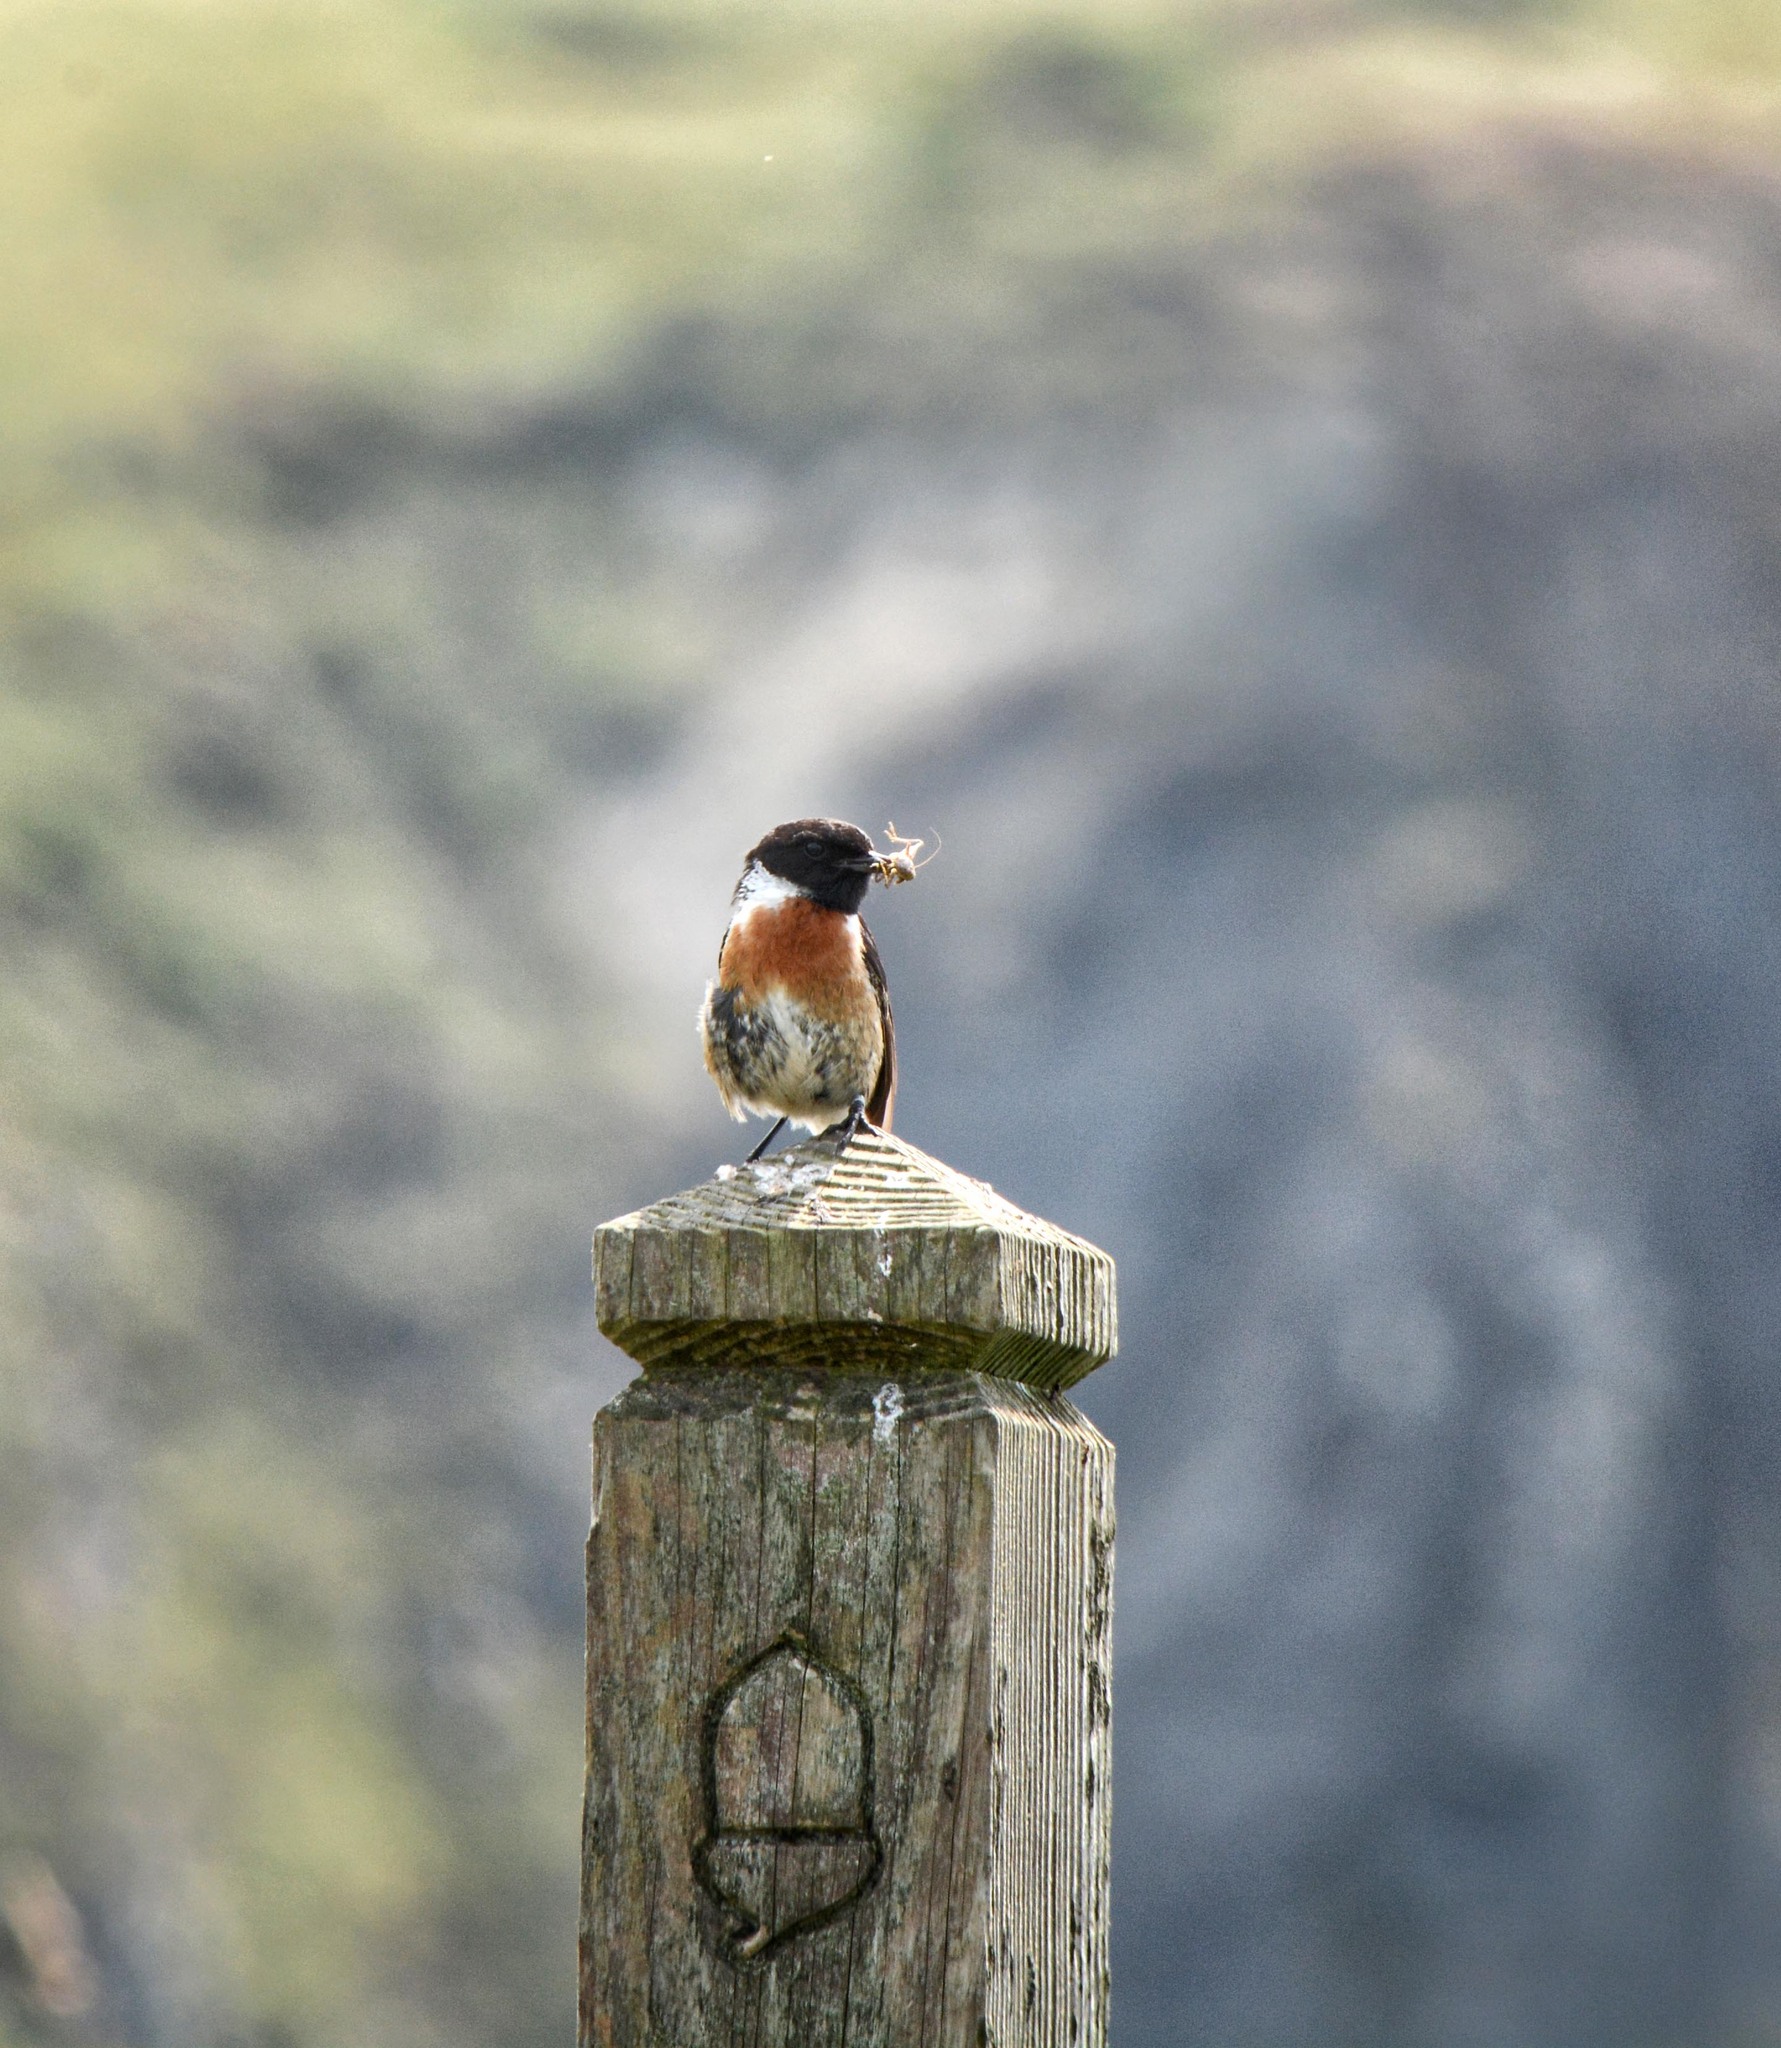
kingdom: Animalia
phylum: Chordata
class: Aves
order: Passeriformes
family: Muscicapidae
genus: Saxicola
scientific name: Saxicola rubicola
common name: European stonechat
